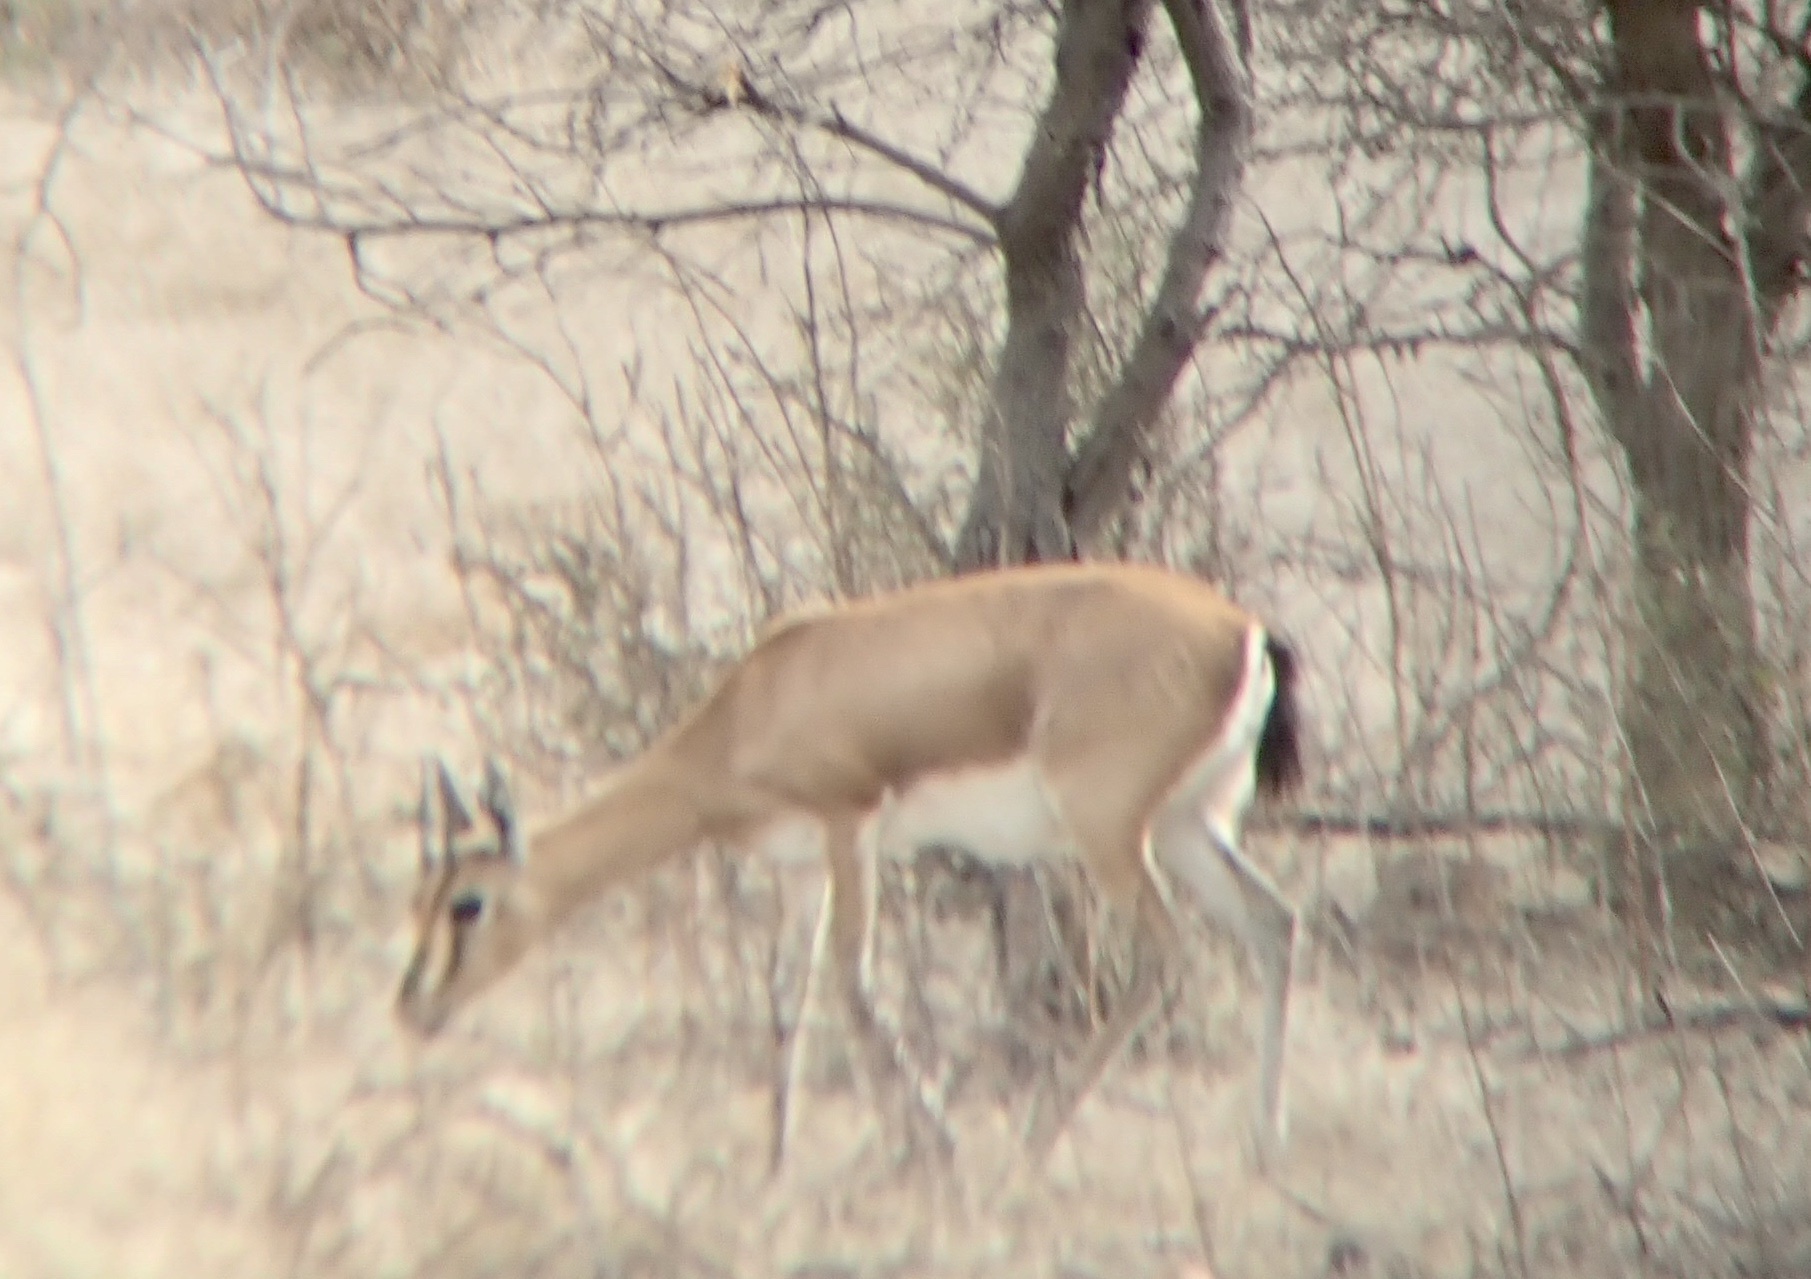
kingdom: Animalia
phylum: Chordata
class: Mammalia
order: Artiodactyla
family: Bovidae
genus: Gazella
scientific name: Gazella bennettii
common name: Indian gazelle
